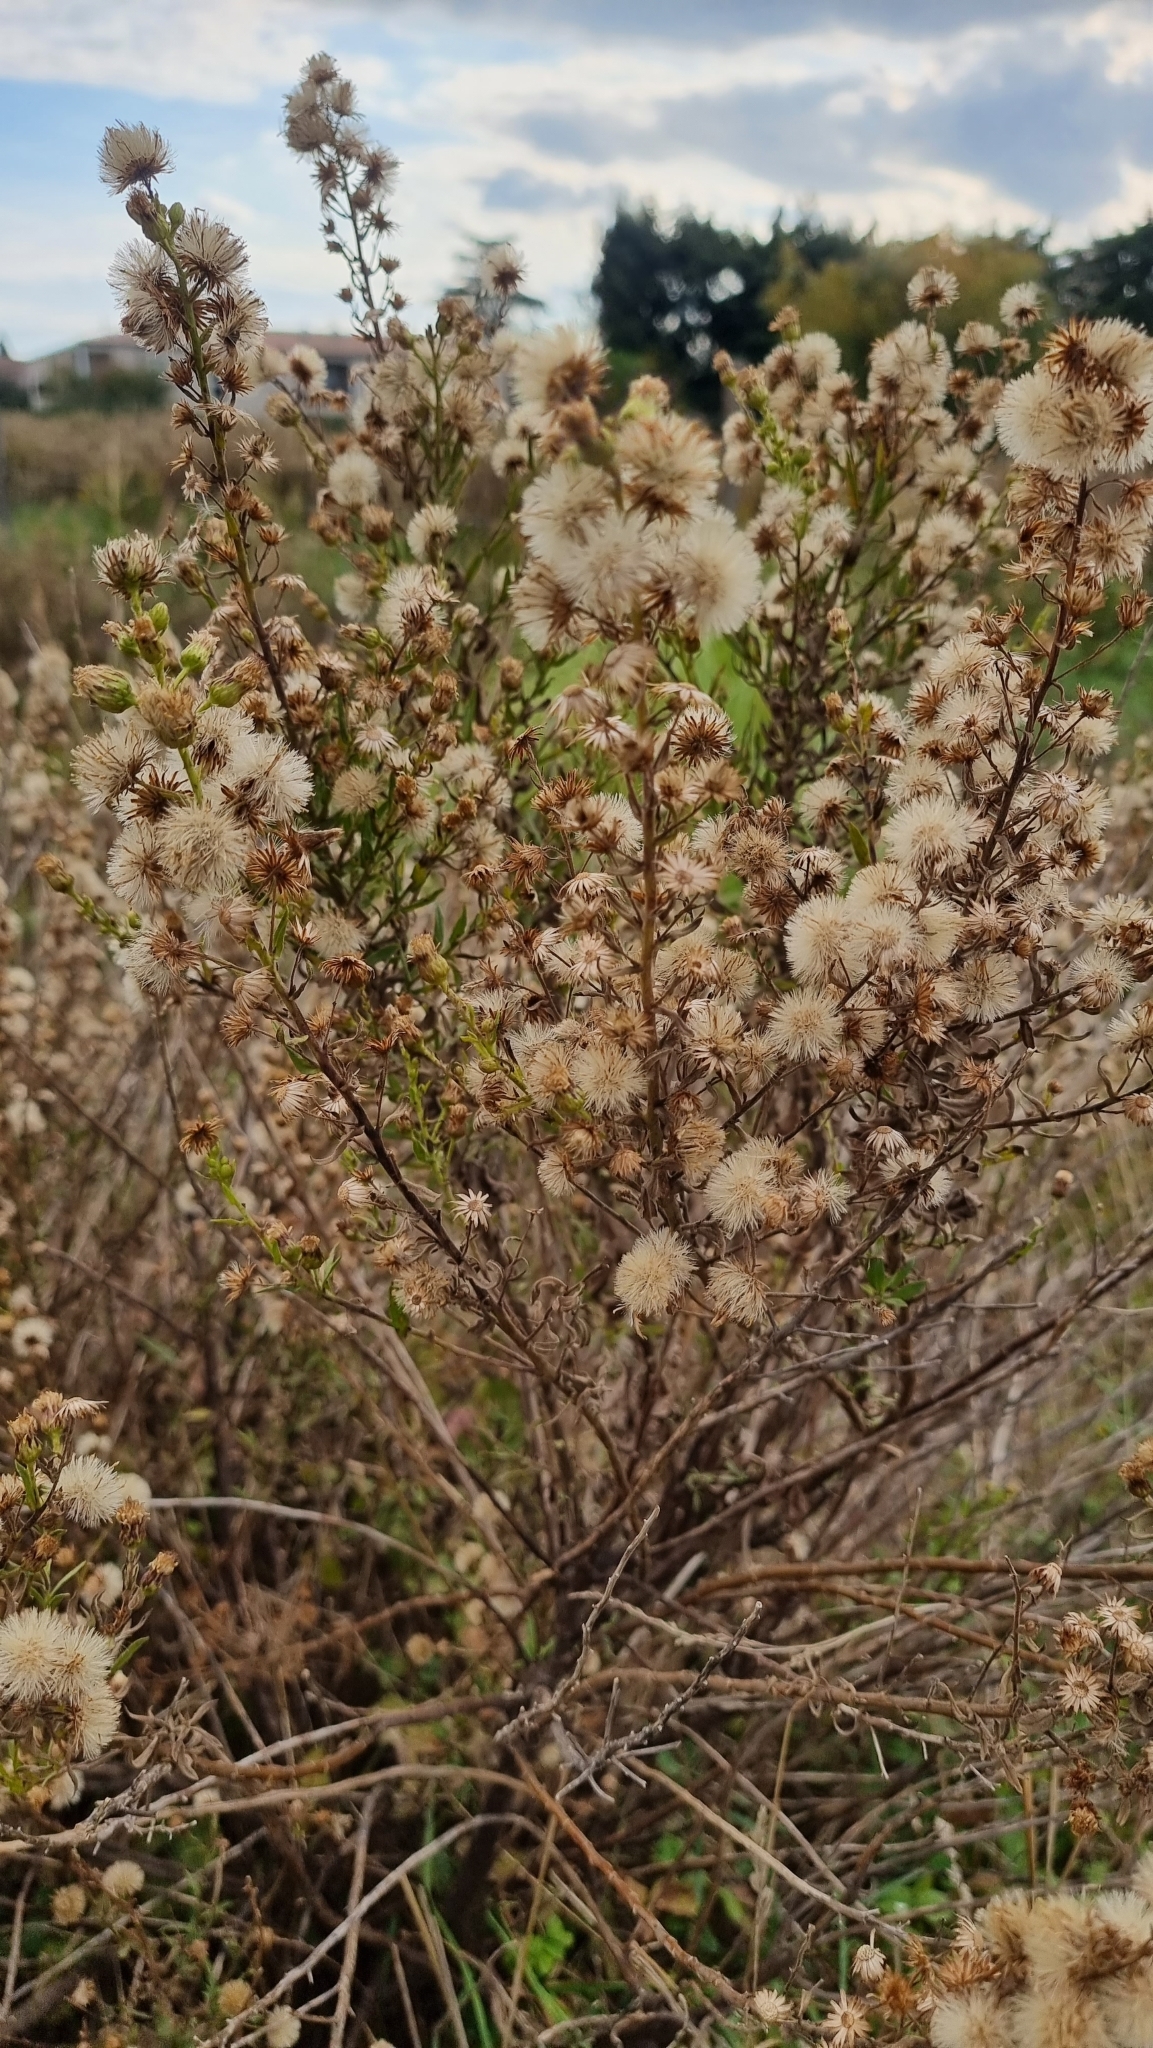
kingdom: Plantae
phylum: Tracheophyta
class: Magnoliopsida
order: Asterales
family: Asteraceae
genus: Dittrichia
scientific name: Dittrichia viscosa
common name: Woody fleabane
